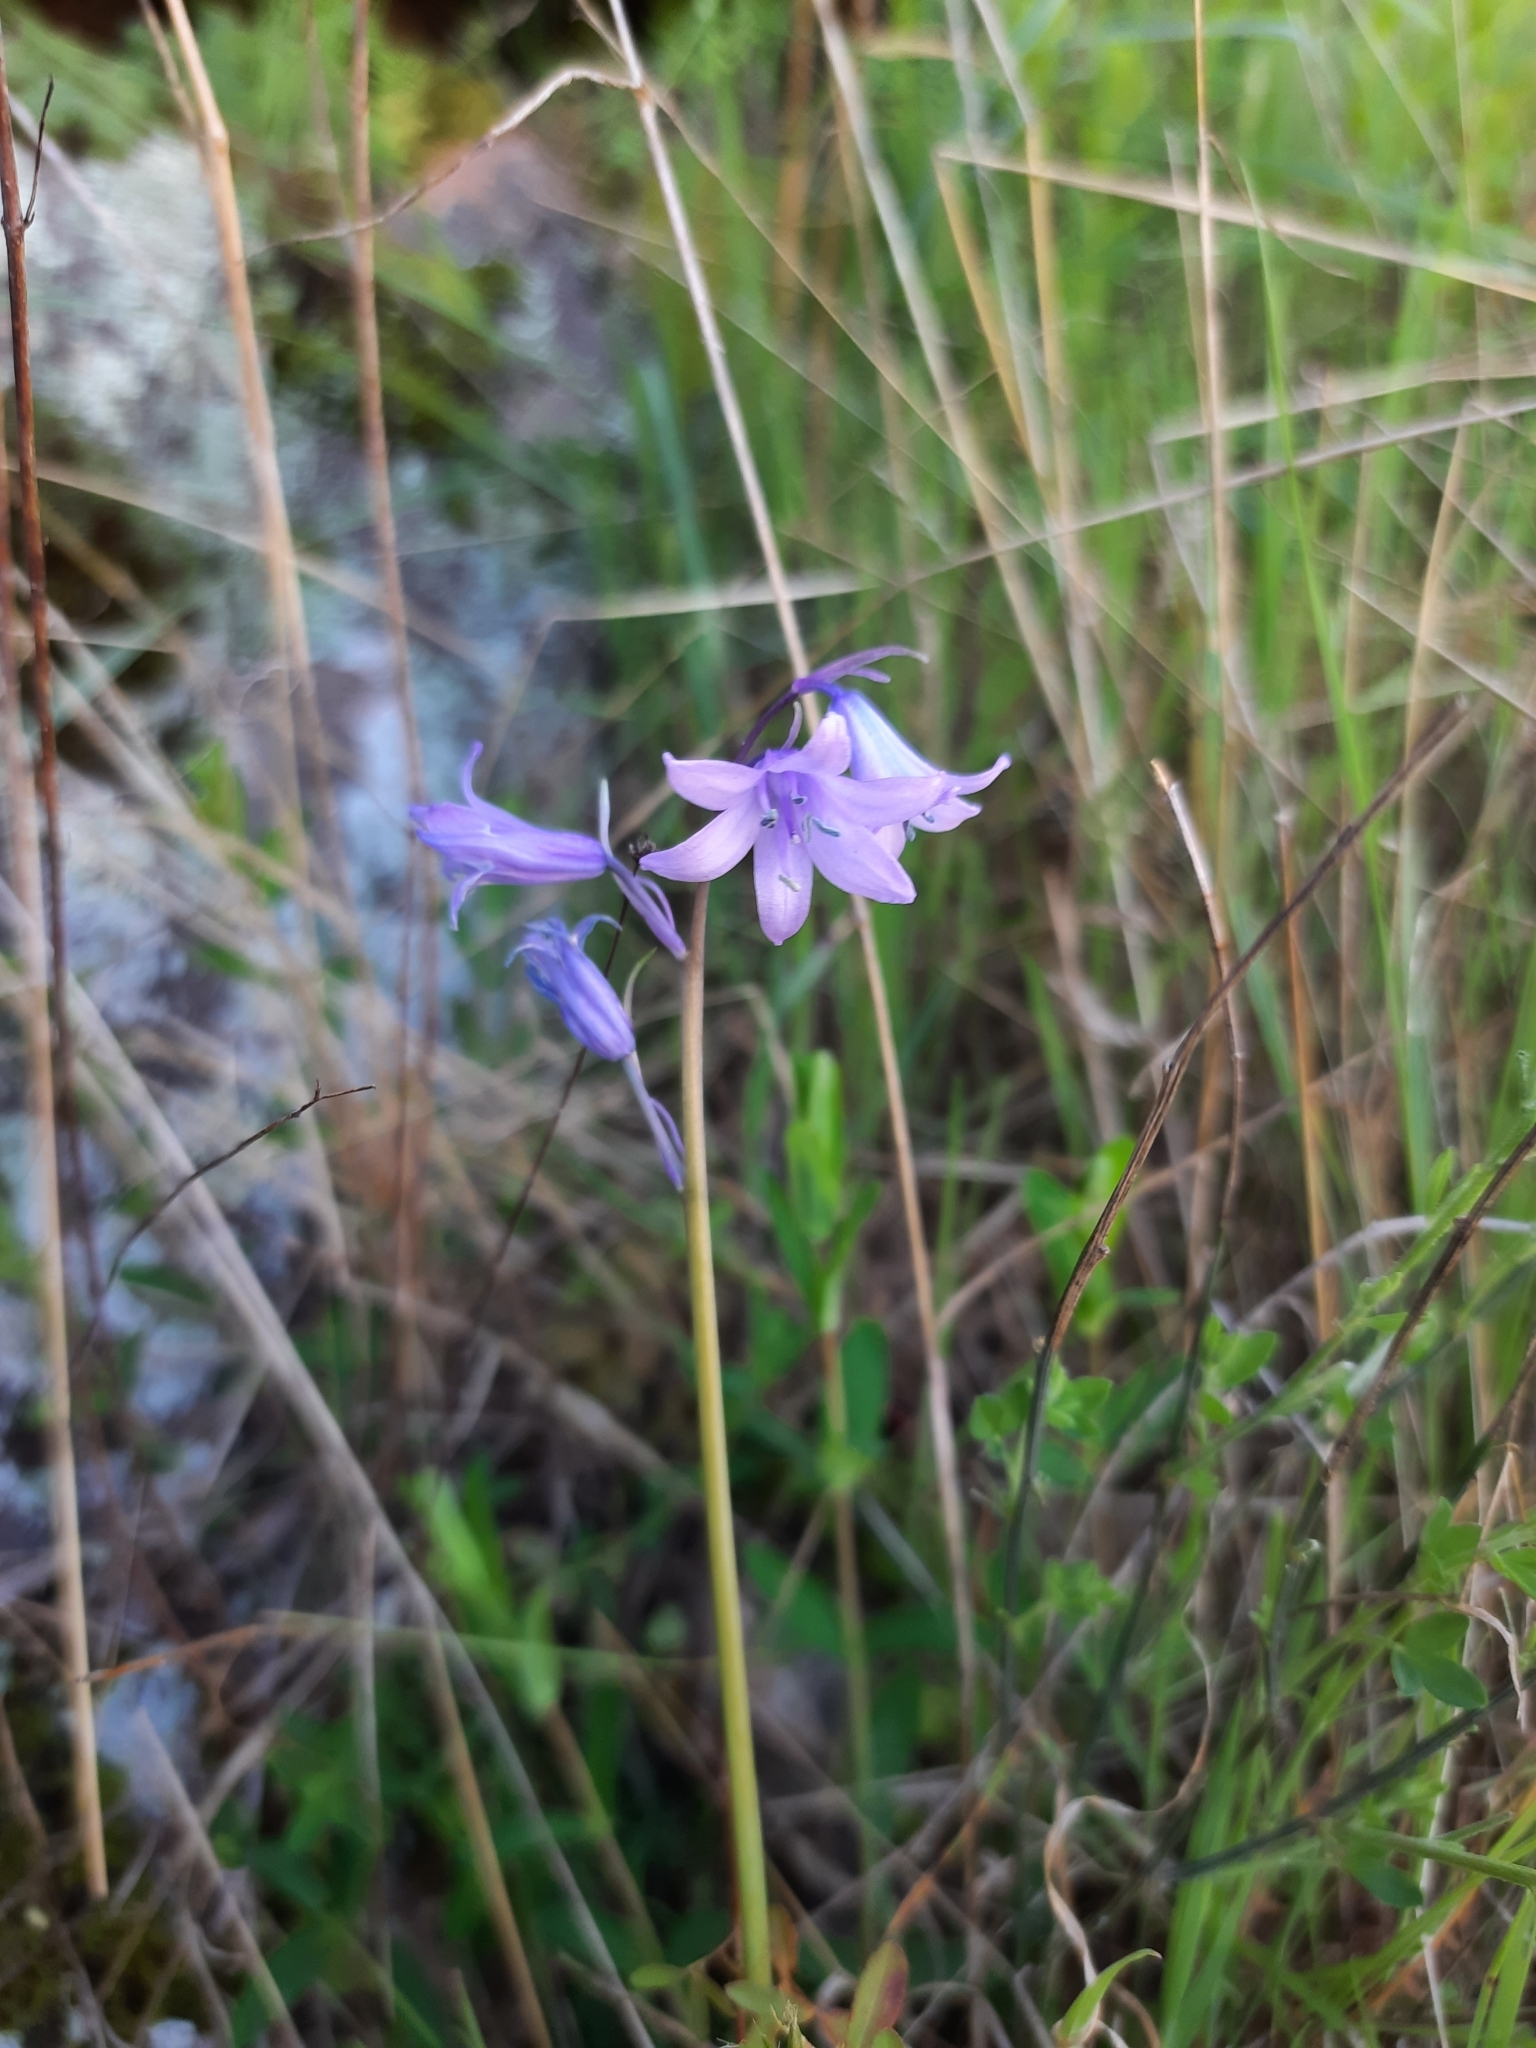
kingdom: Plantae
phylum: Tracheophyta
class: Liliopsida
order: Asparagales
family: Asparagaceae
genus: Hyacinthoides
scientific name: Hyacinthoides hispanica
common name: Spanish bluebell
